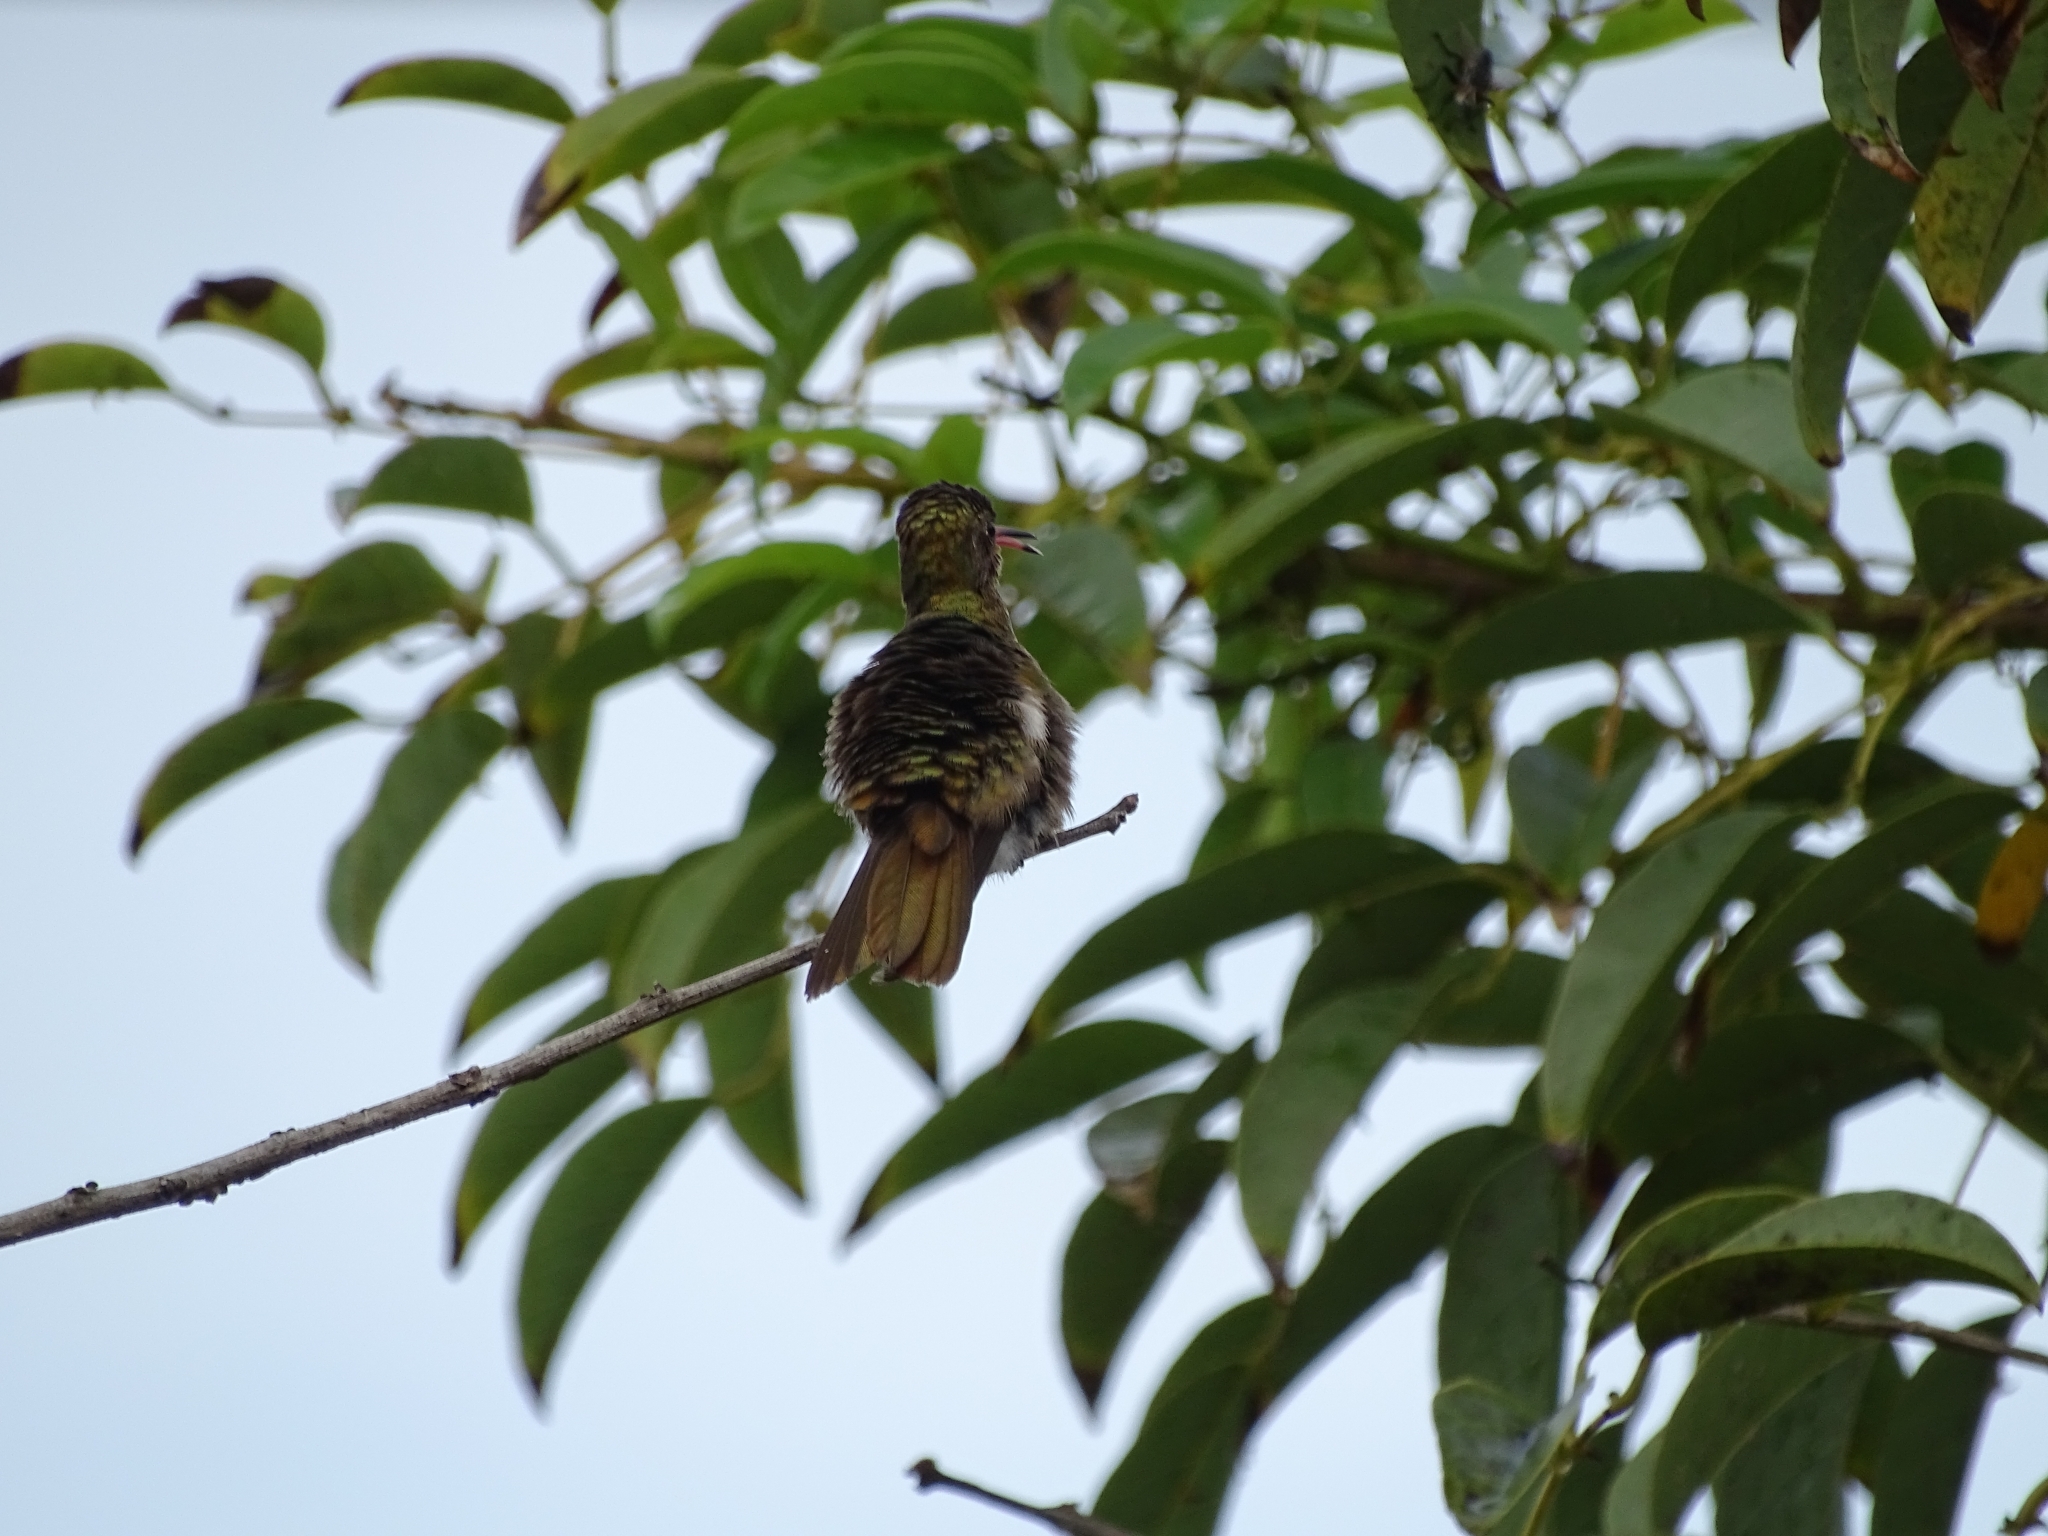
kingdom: Animalia
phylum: Chordata
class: Aves
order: Apodiformes
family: Trochilidae
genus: Hylocharis
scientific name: Hylocharis chrysura
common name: Gilded sapphire
